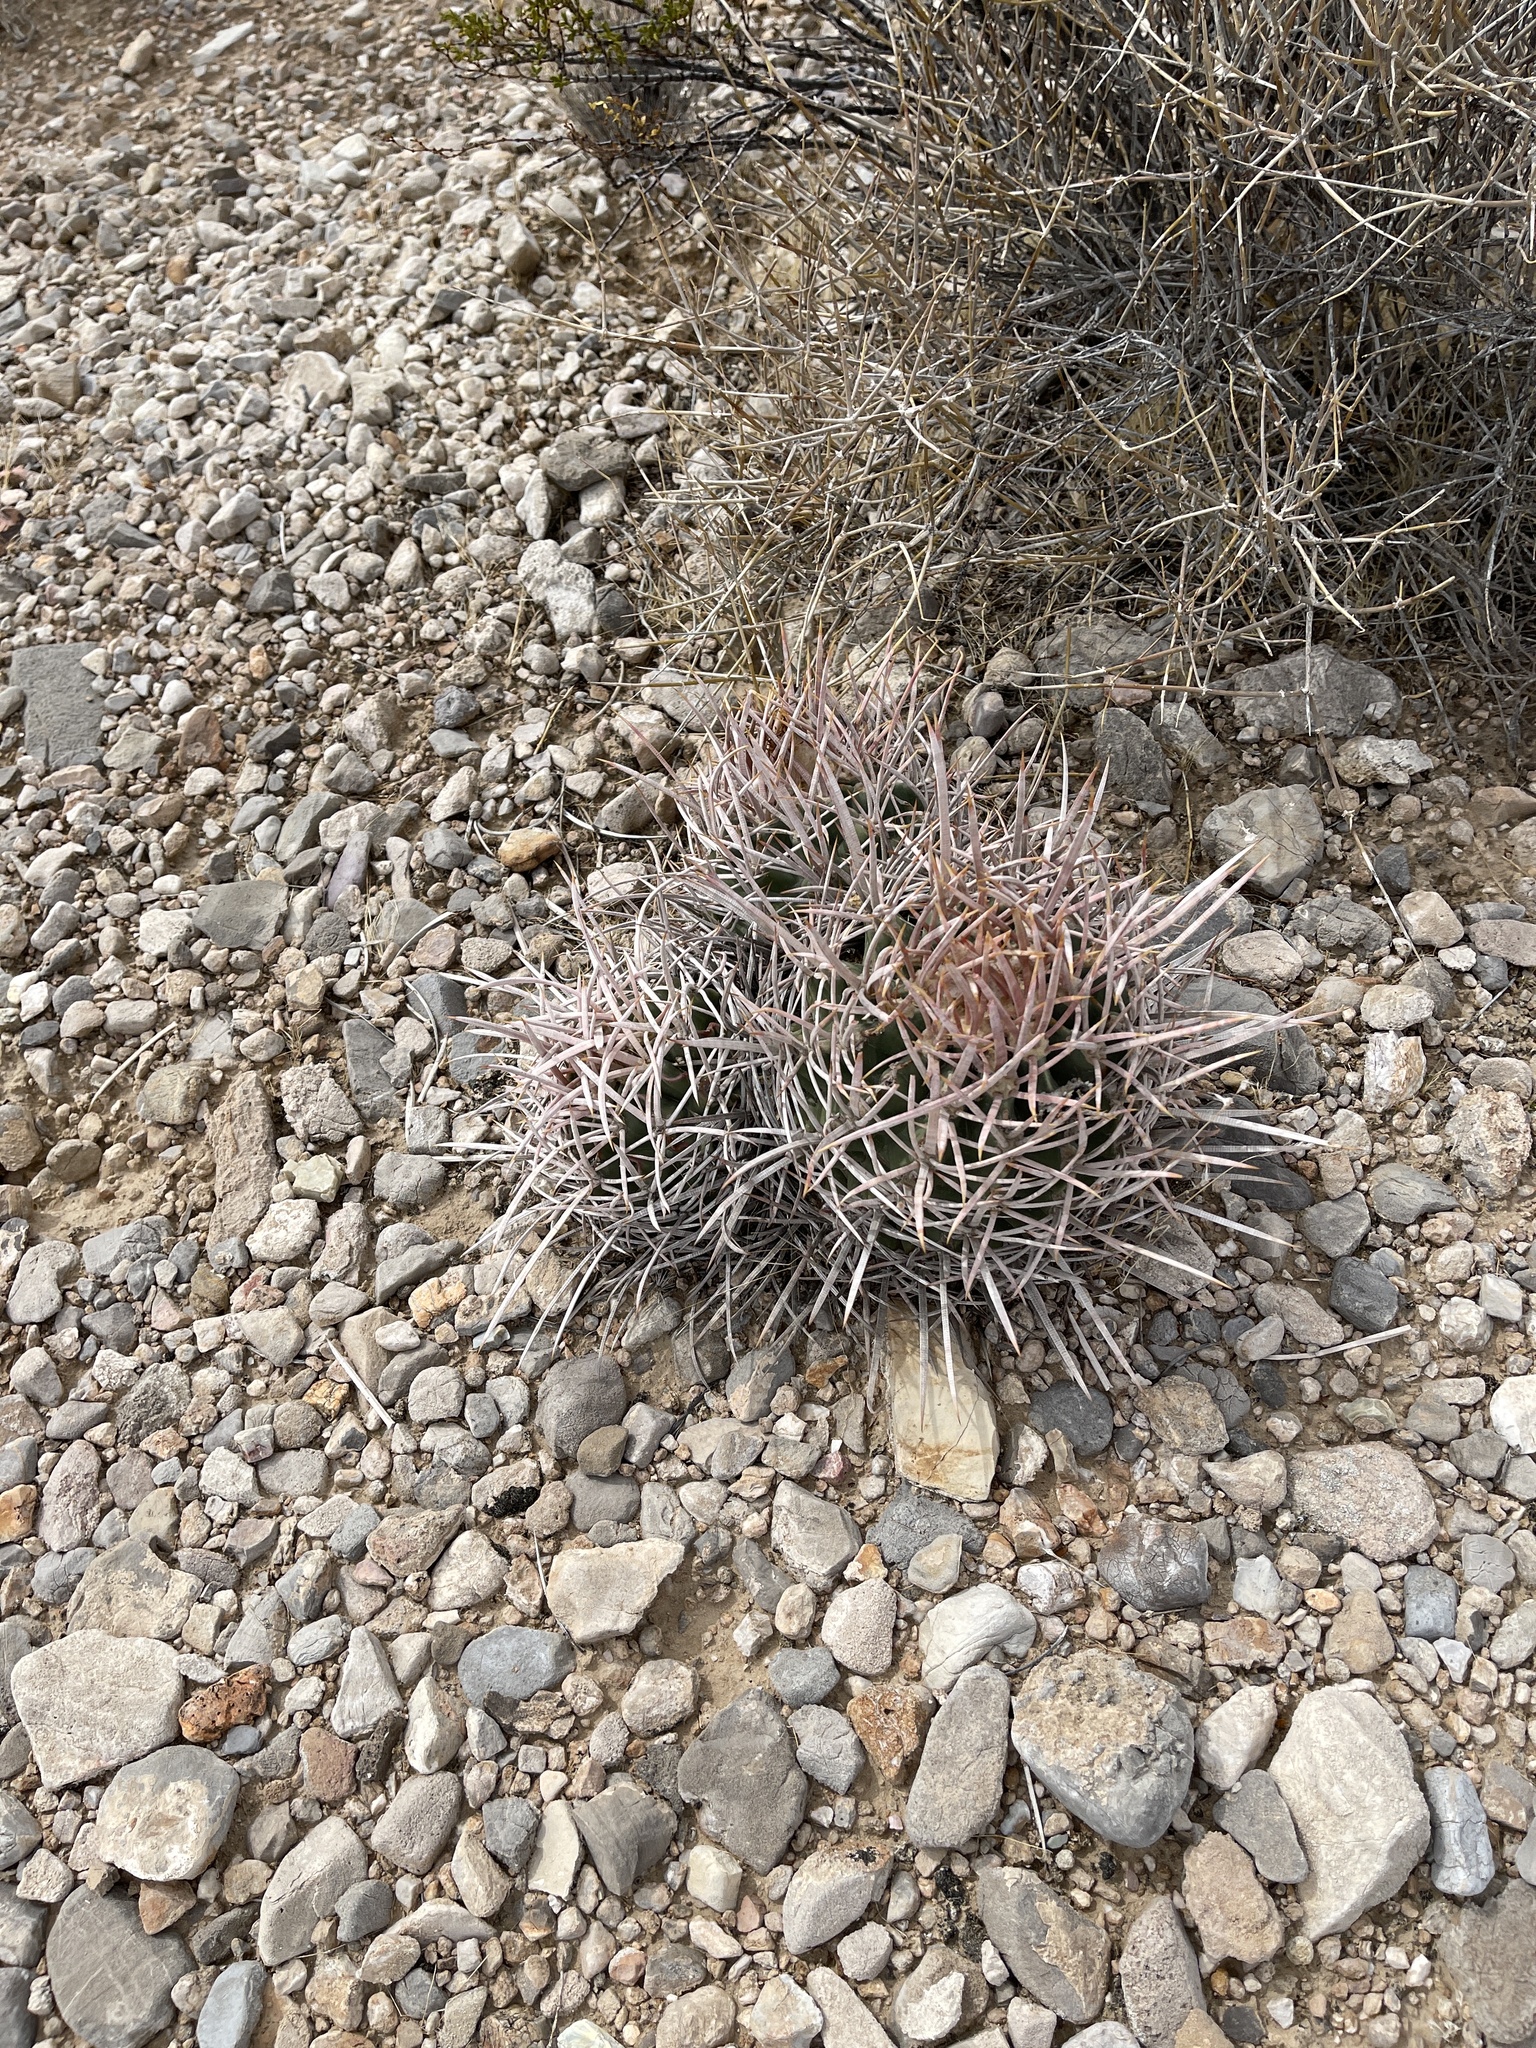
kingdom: Plantae
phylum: Tracheophyta
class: Magnoliopsida
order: Caryophyllales
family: Cactaceae
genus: Echinocactus
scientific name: Echinocactus polycephalus
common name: Cottontop cactus
